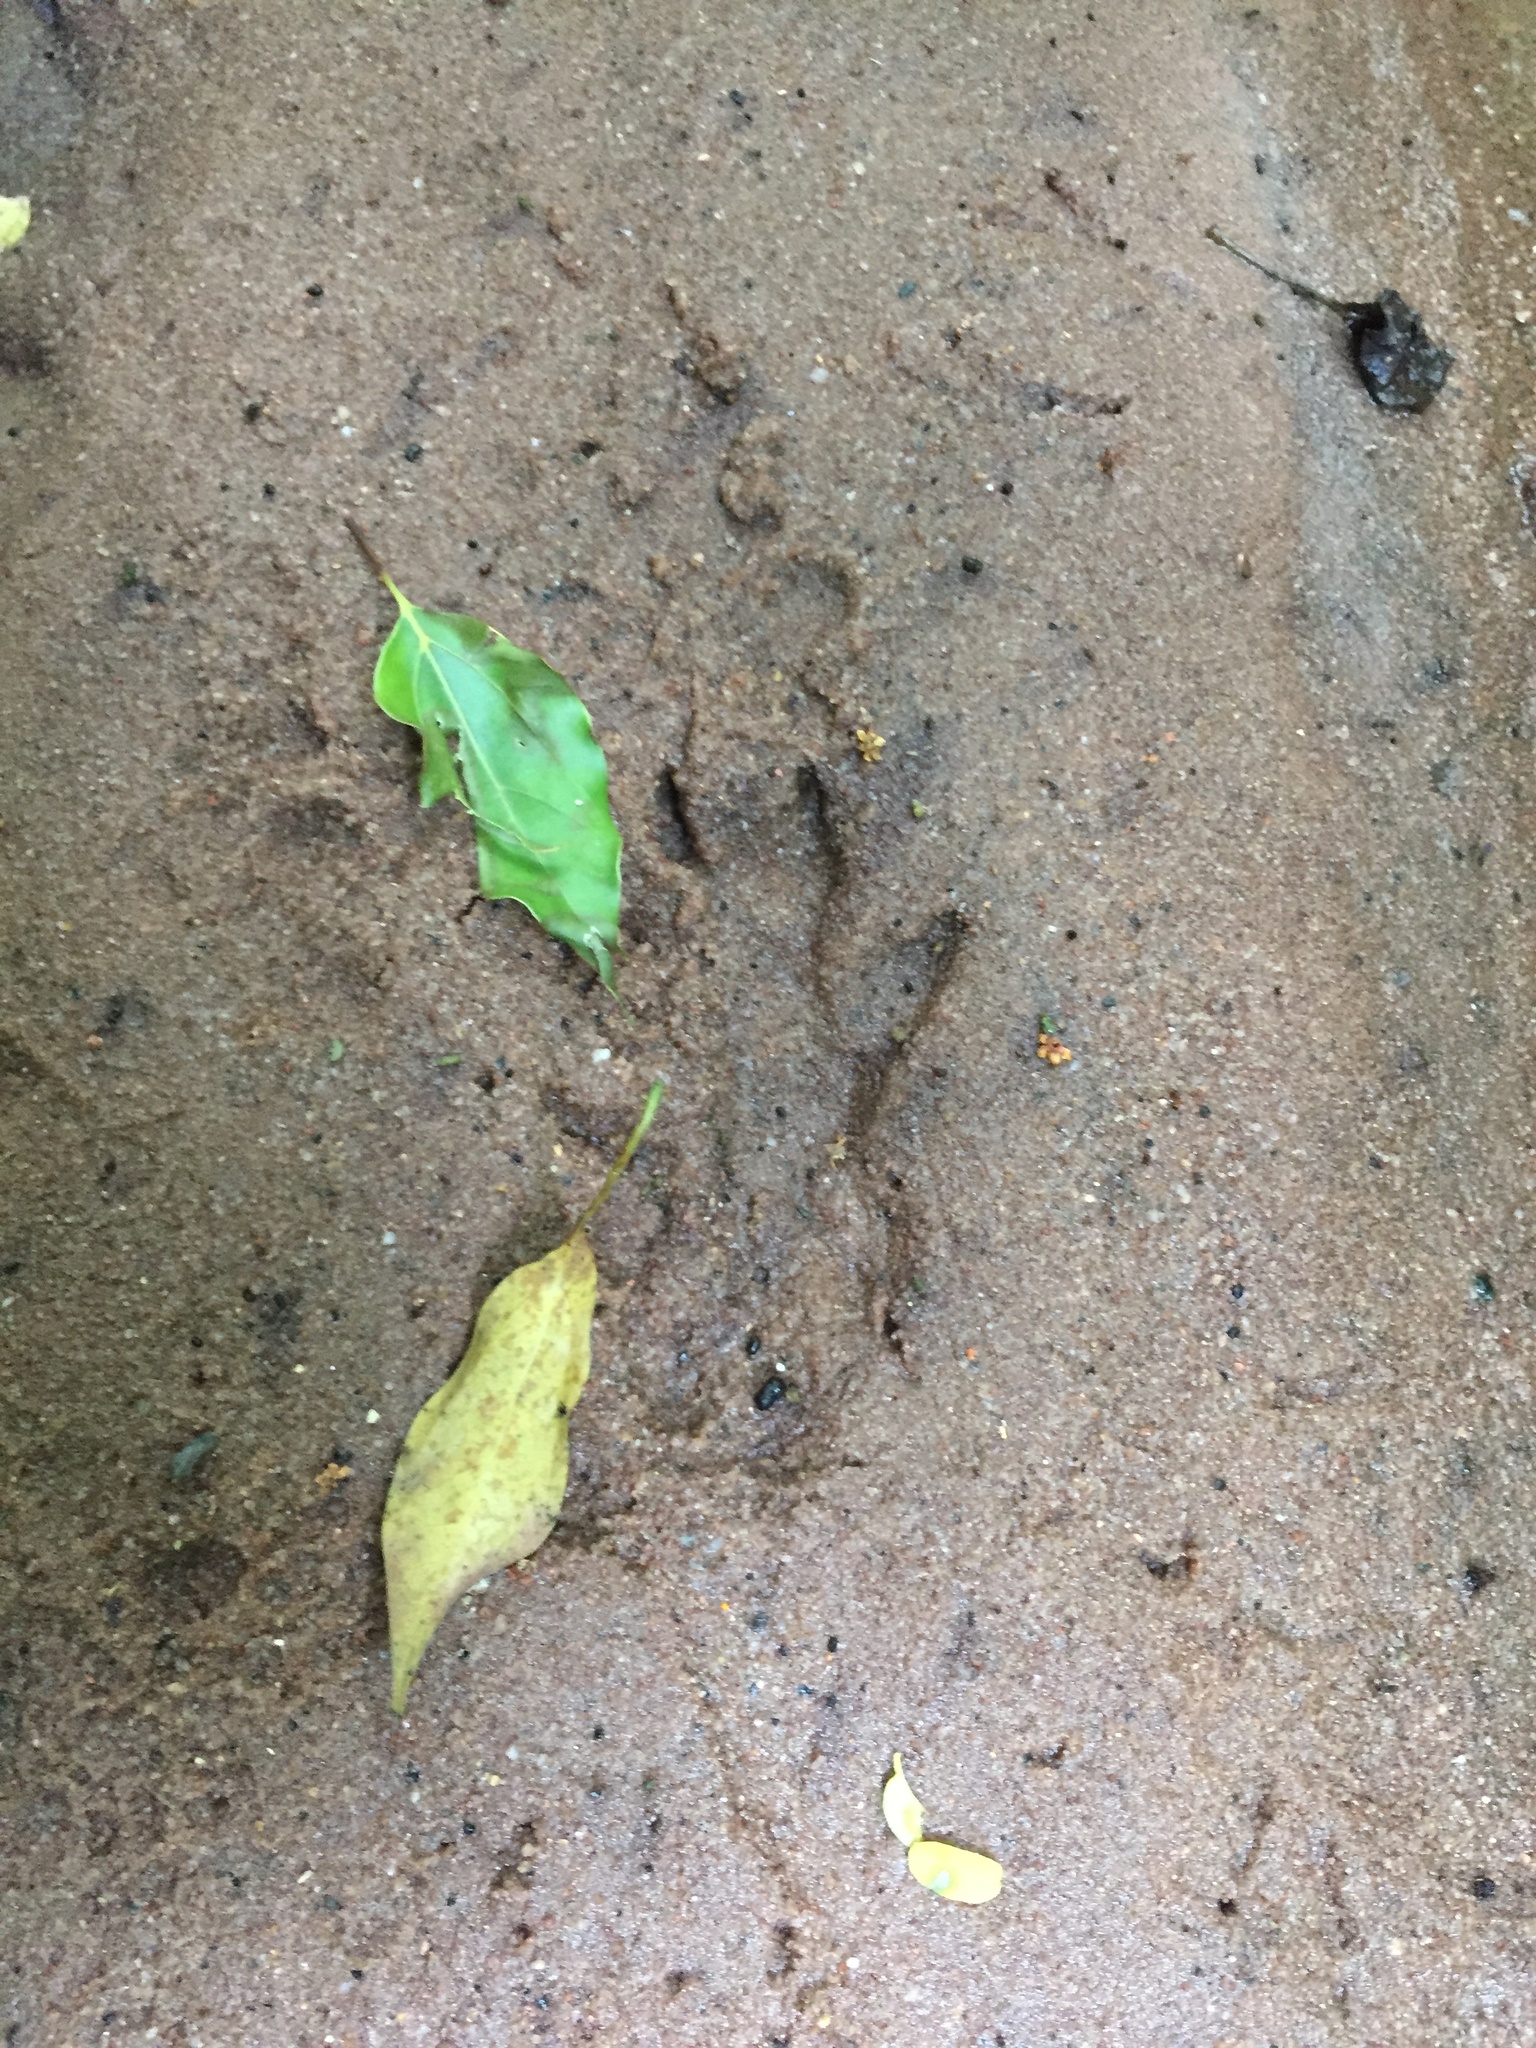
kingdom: Animalia
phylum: Chordata
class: Mammalia
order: Carnivora
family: Herpestidae
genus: Atilax
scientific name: Atilax paludinosus
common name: Marsh mongoose
